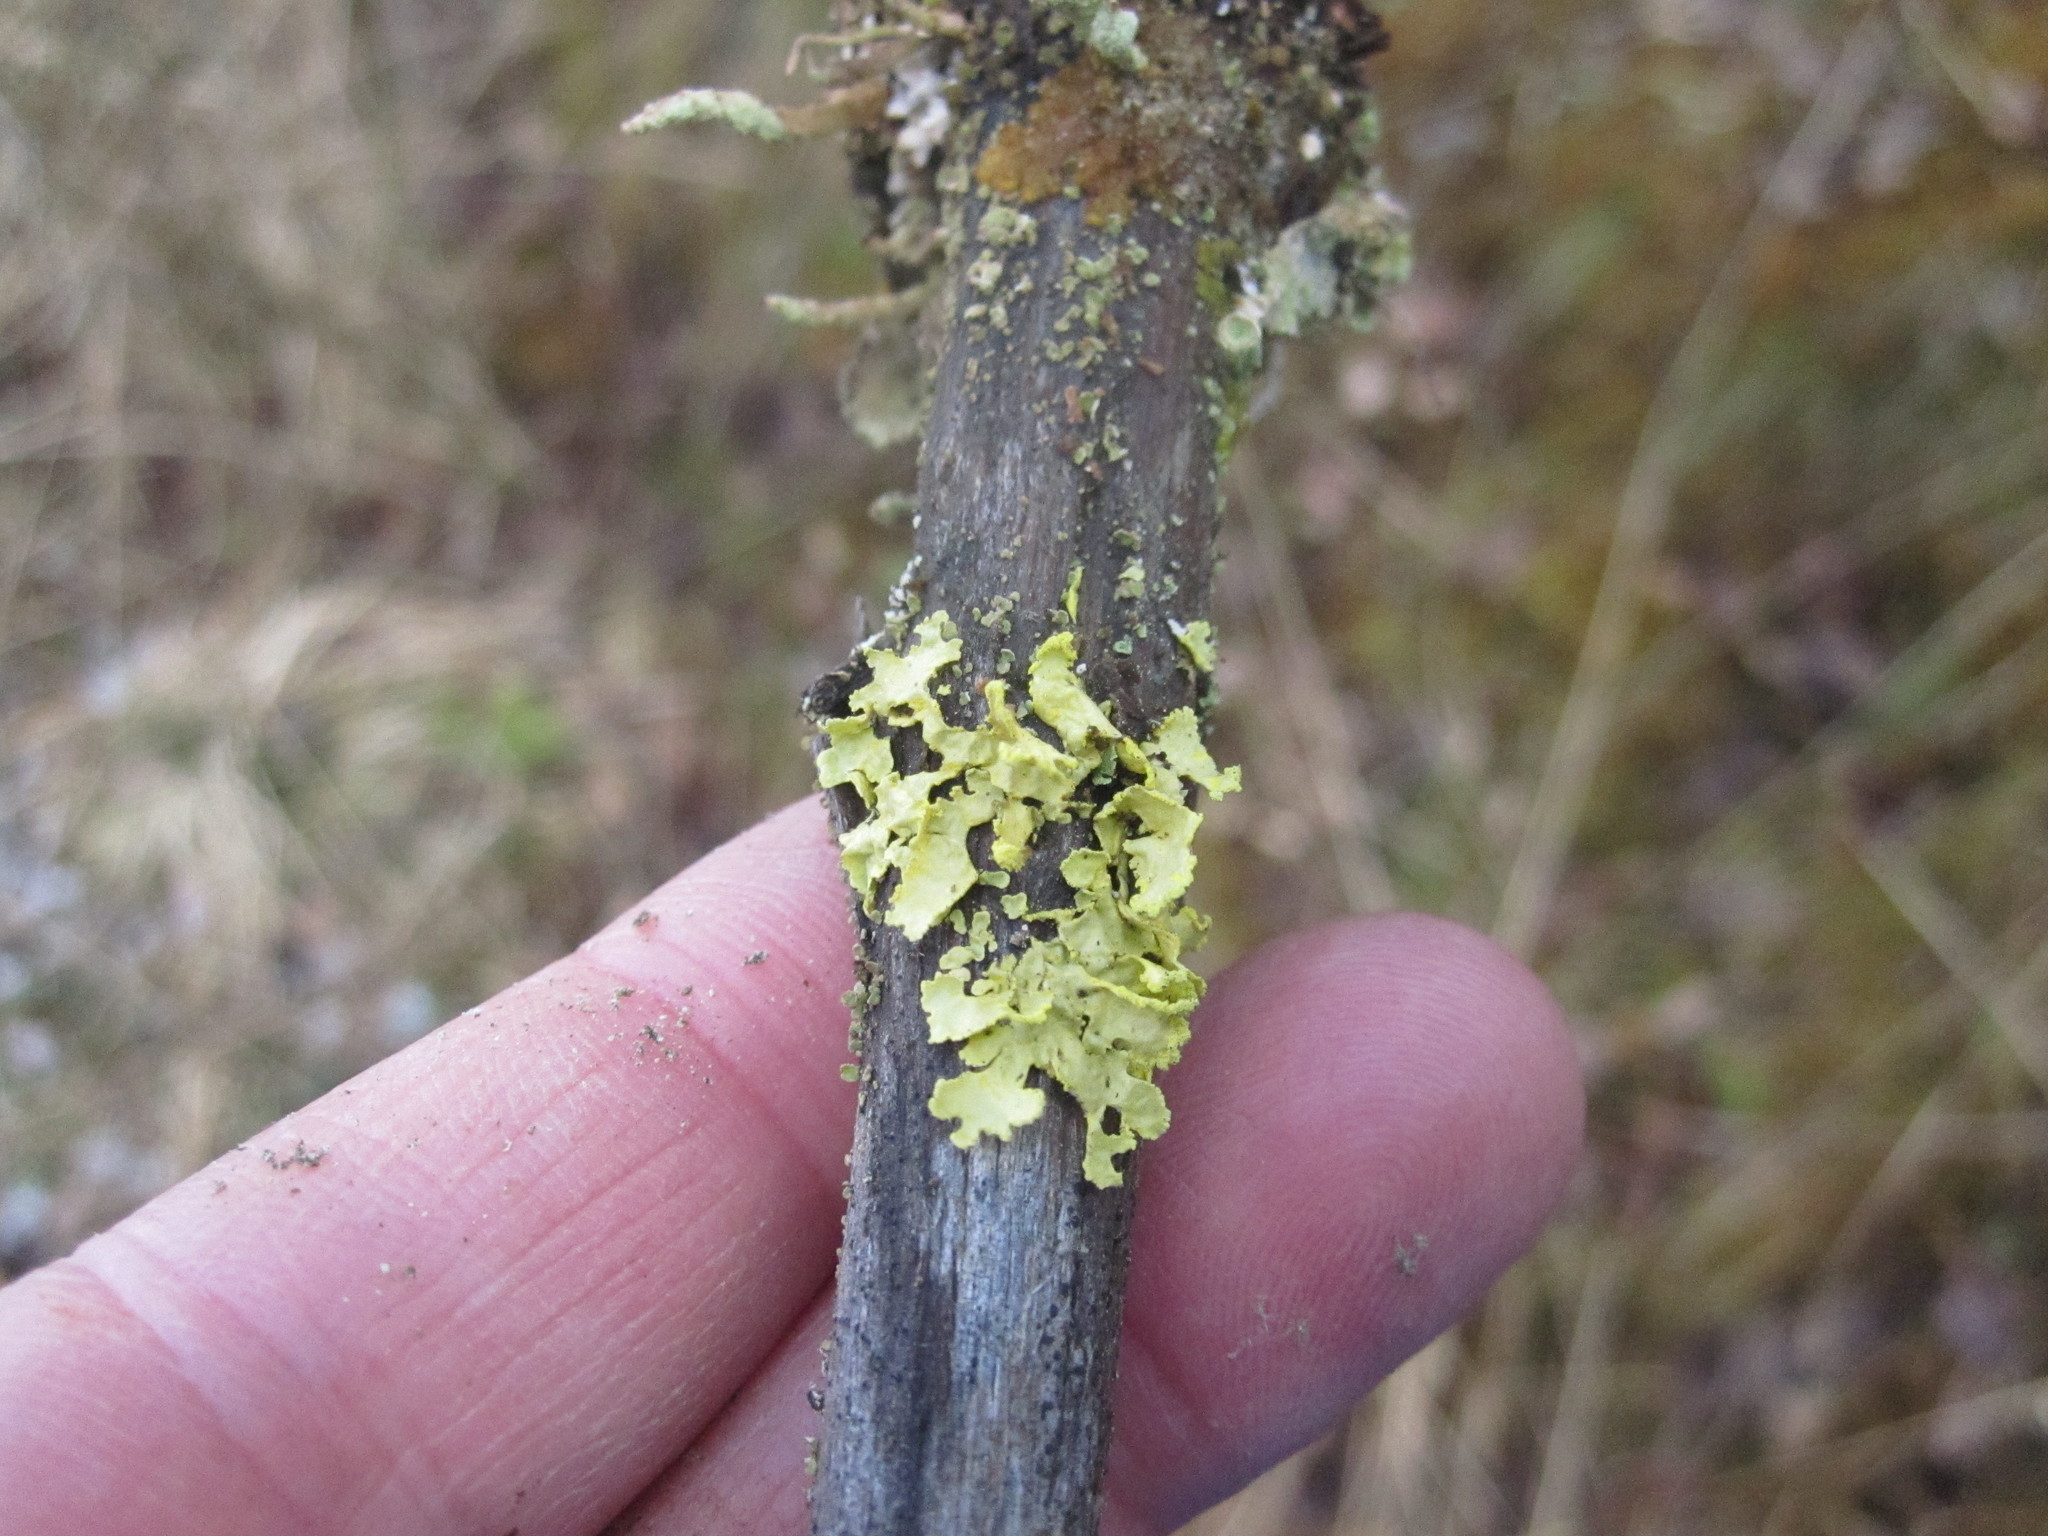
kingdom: Fungi
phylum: Ascomycota
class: Lecanoromycetes
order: Lecanorales
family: Parmeliaceae
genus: Vulpicida
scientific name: Vulpicida pinastri
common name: Powdered sunshine lichen
